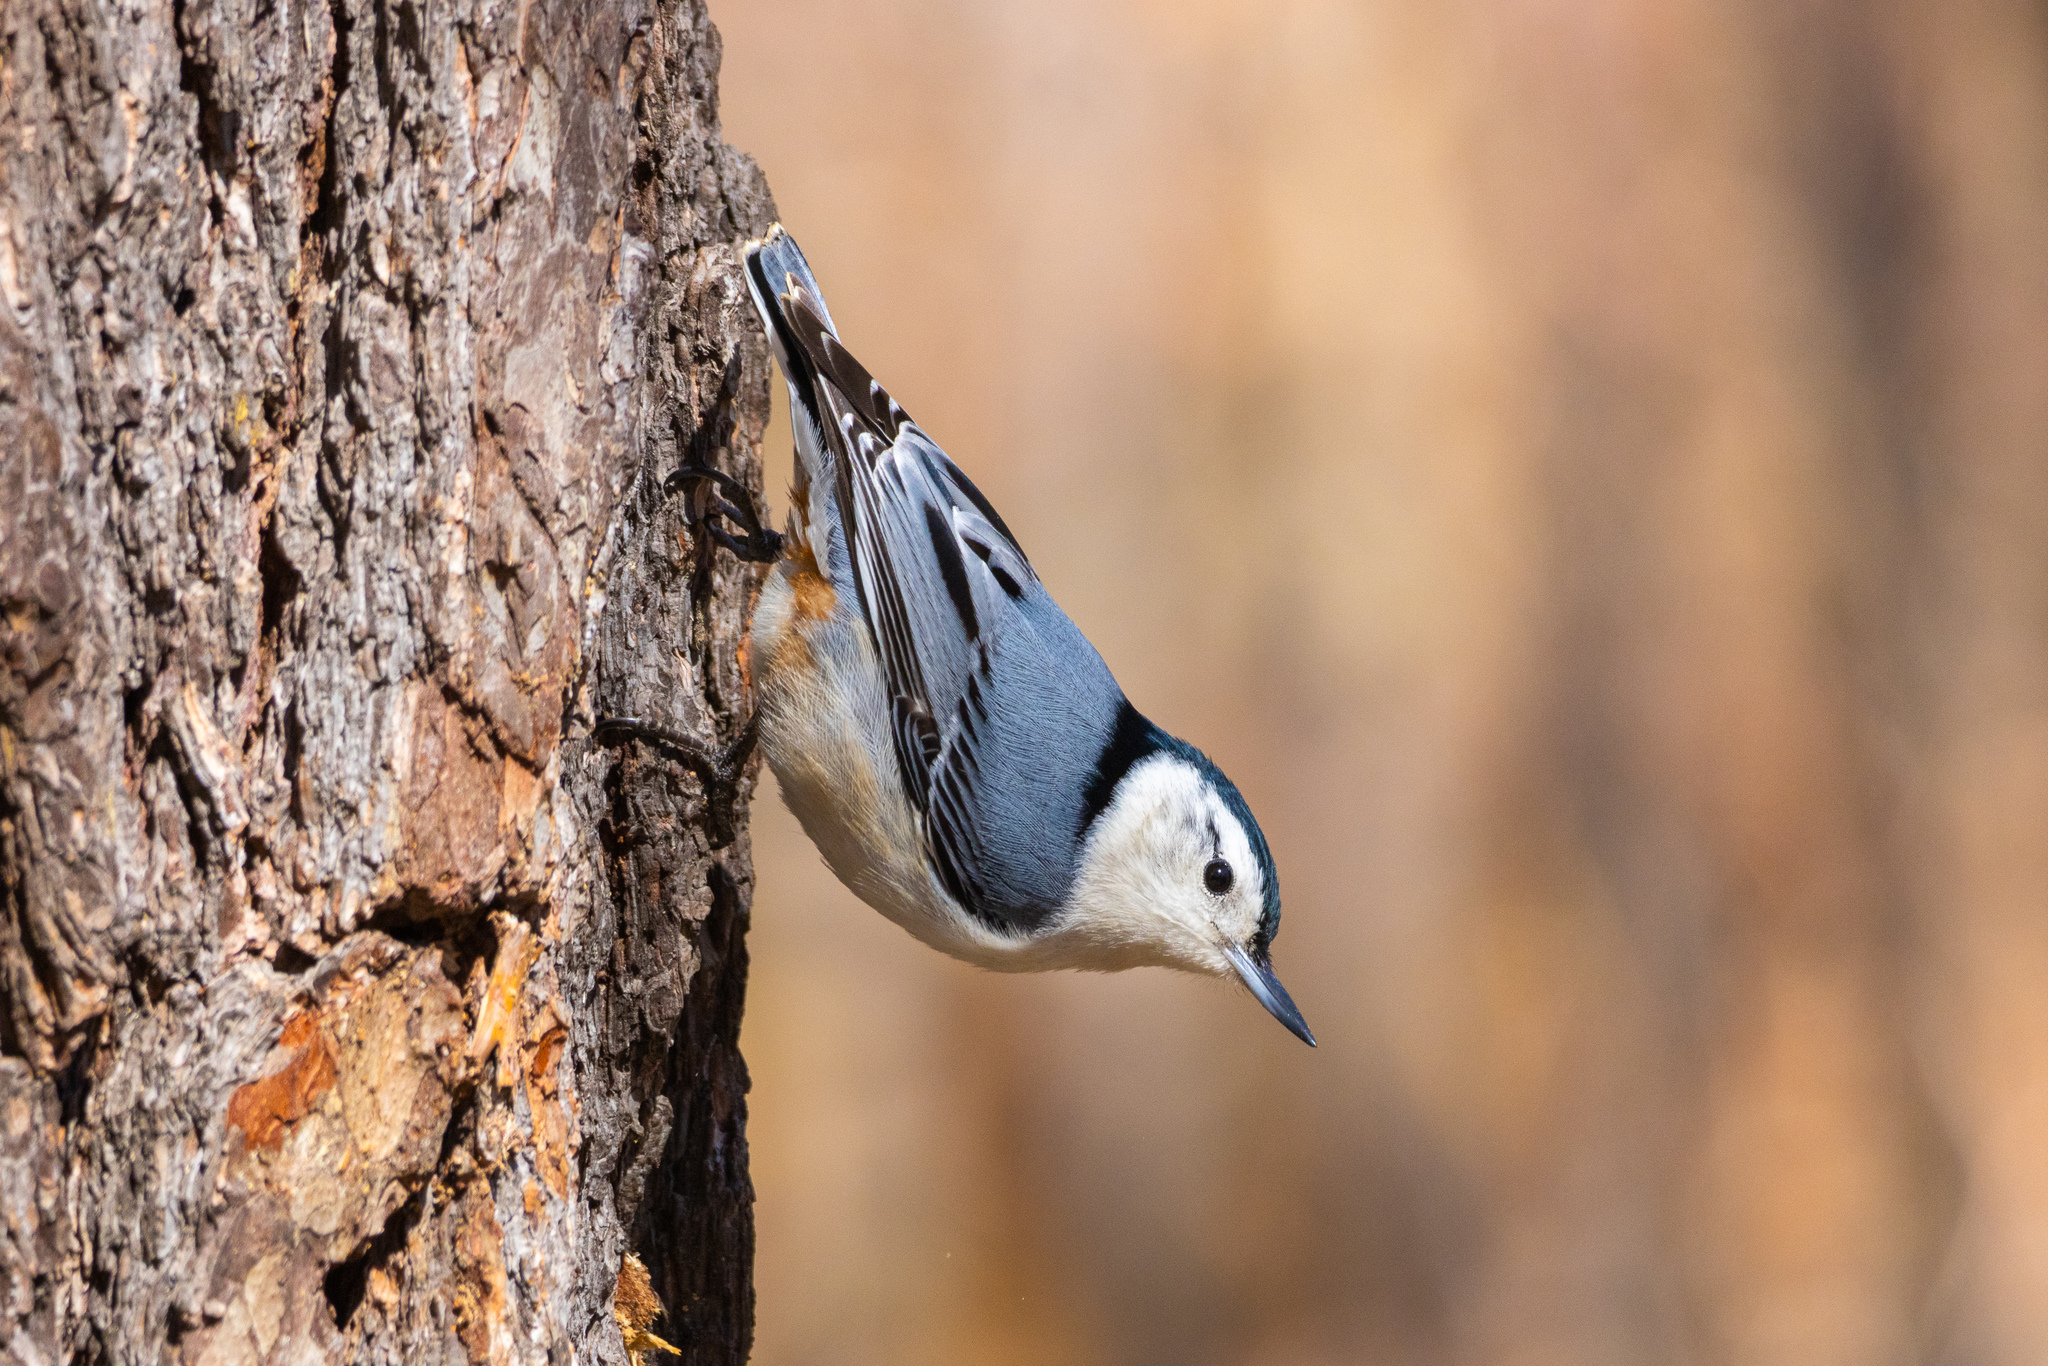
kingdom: Animalia
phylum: Chordata
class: Aves
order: Passeriformes
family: Sittidae
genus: Sitta
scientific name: Sitta carolinensis
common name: White-breasted nuthatch
